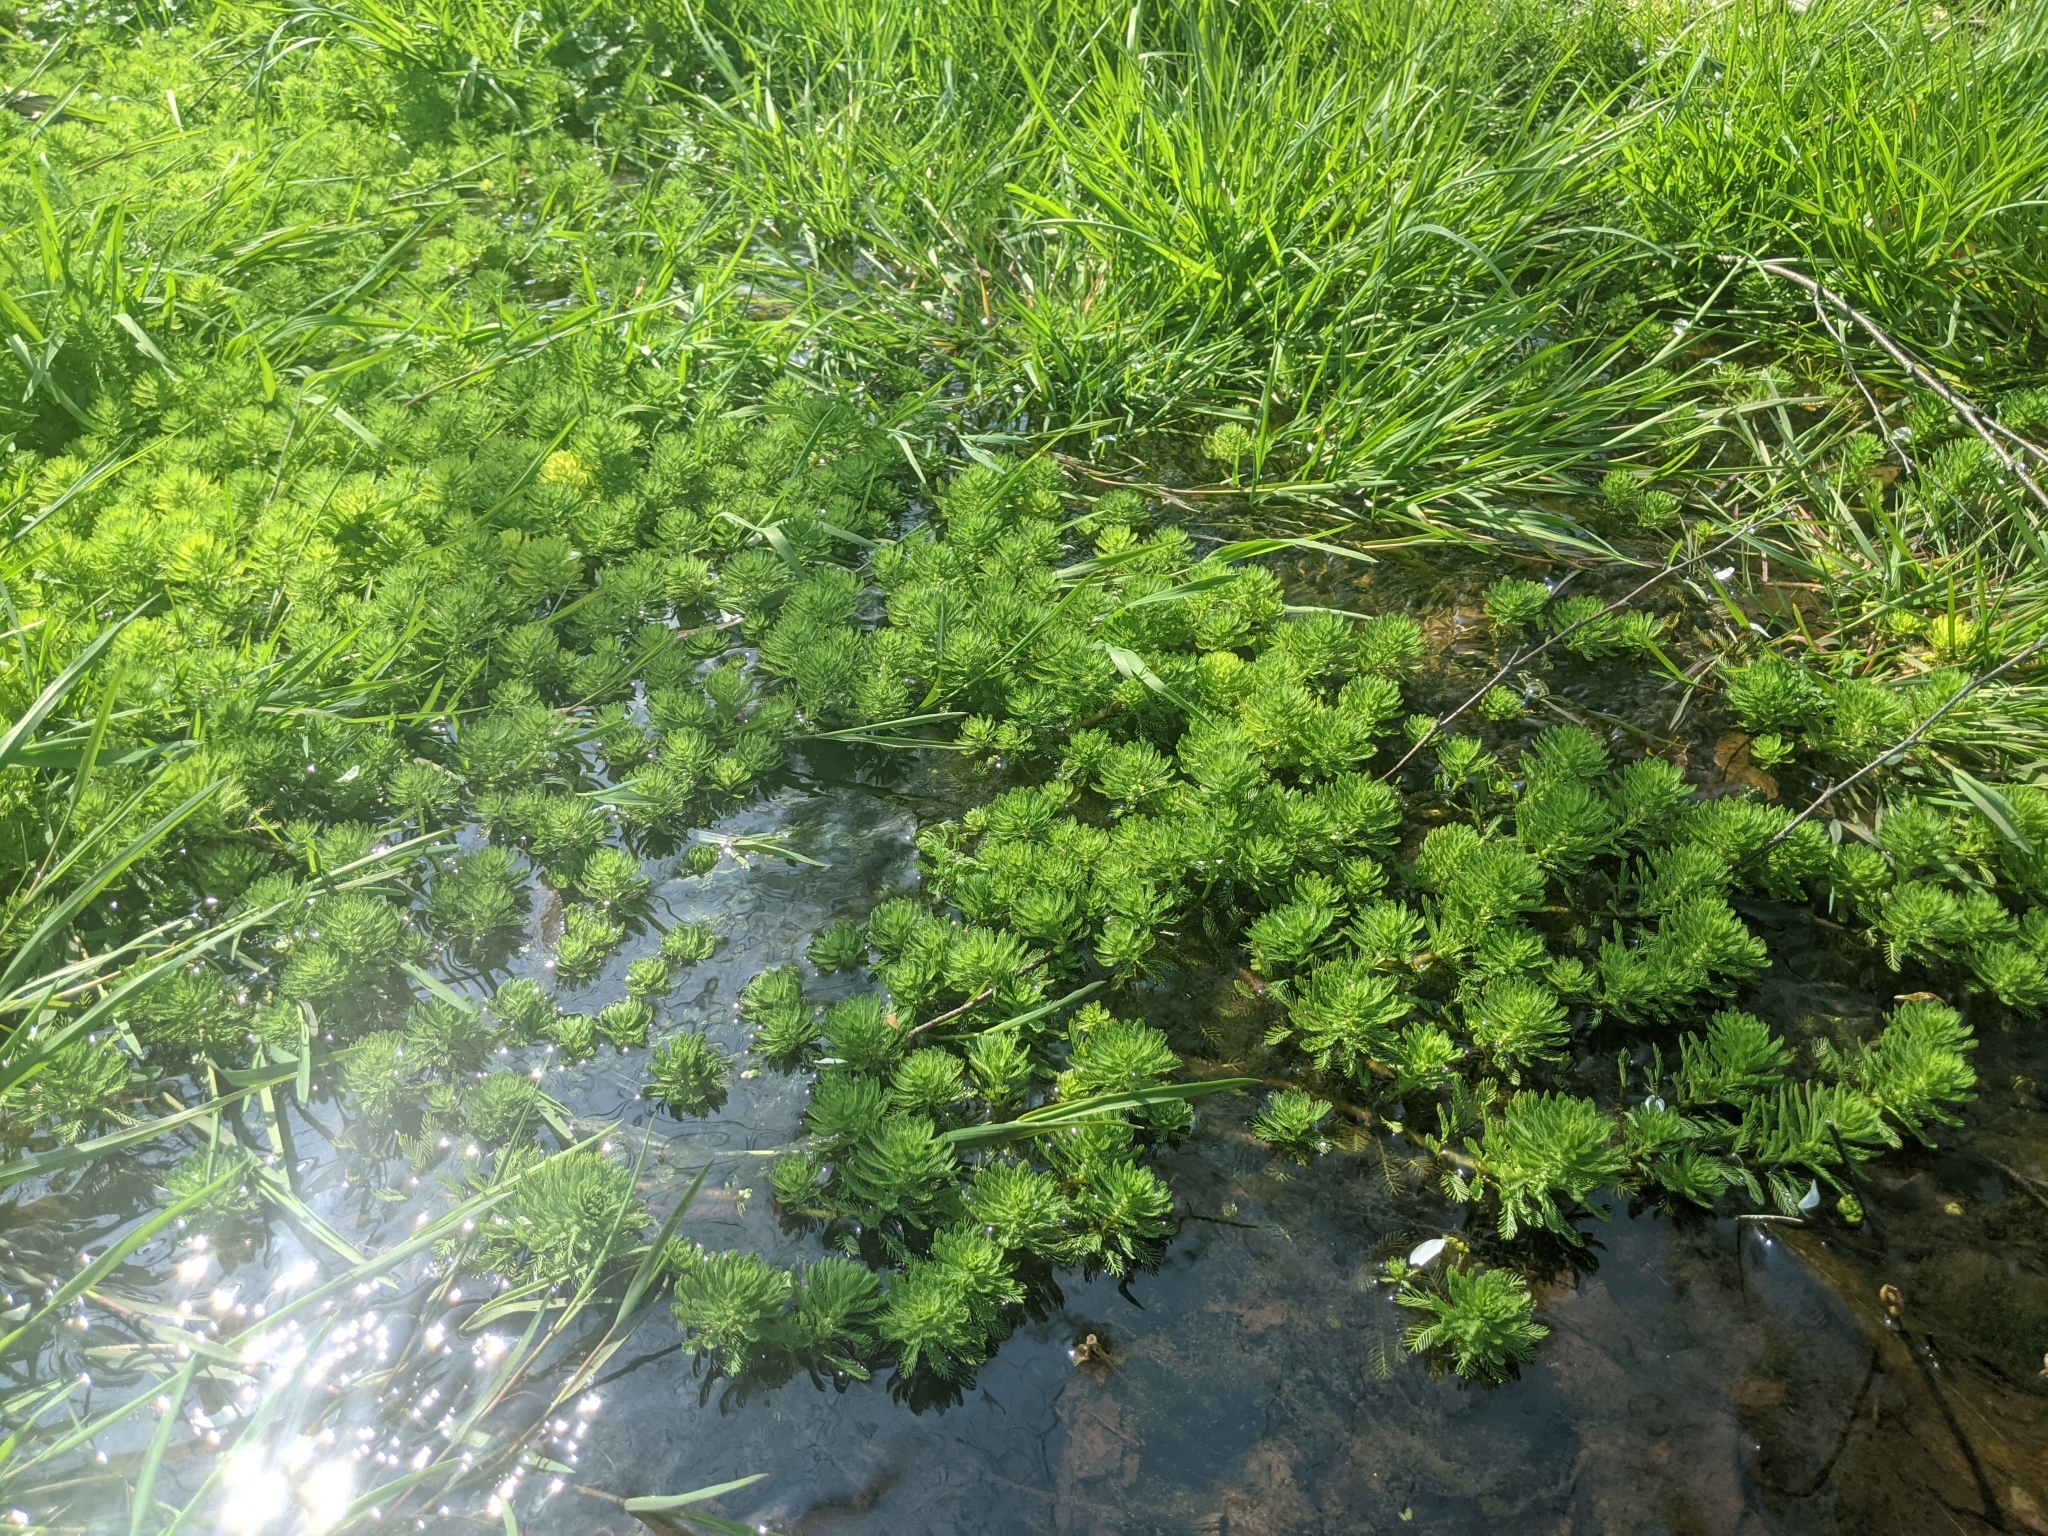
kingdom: Plantae
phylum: Tracheophyta
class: Magnoliopsida
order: Saxifragales
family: Haloragaceae
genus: Myriophyllum
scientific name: Myriophyllum aquaticum
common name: Parrot's feather
